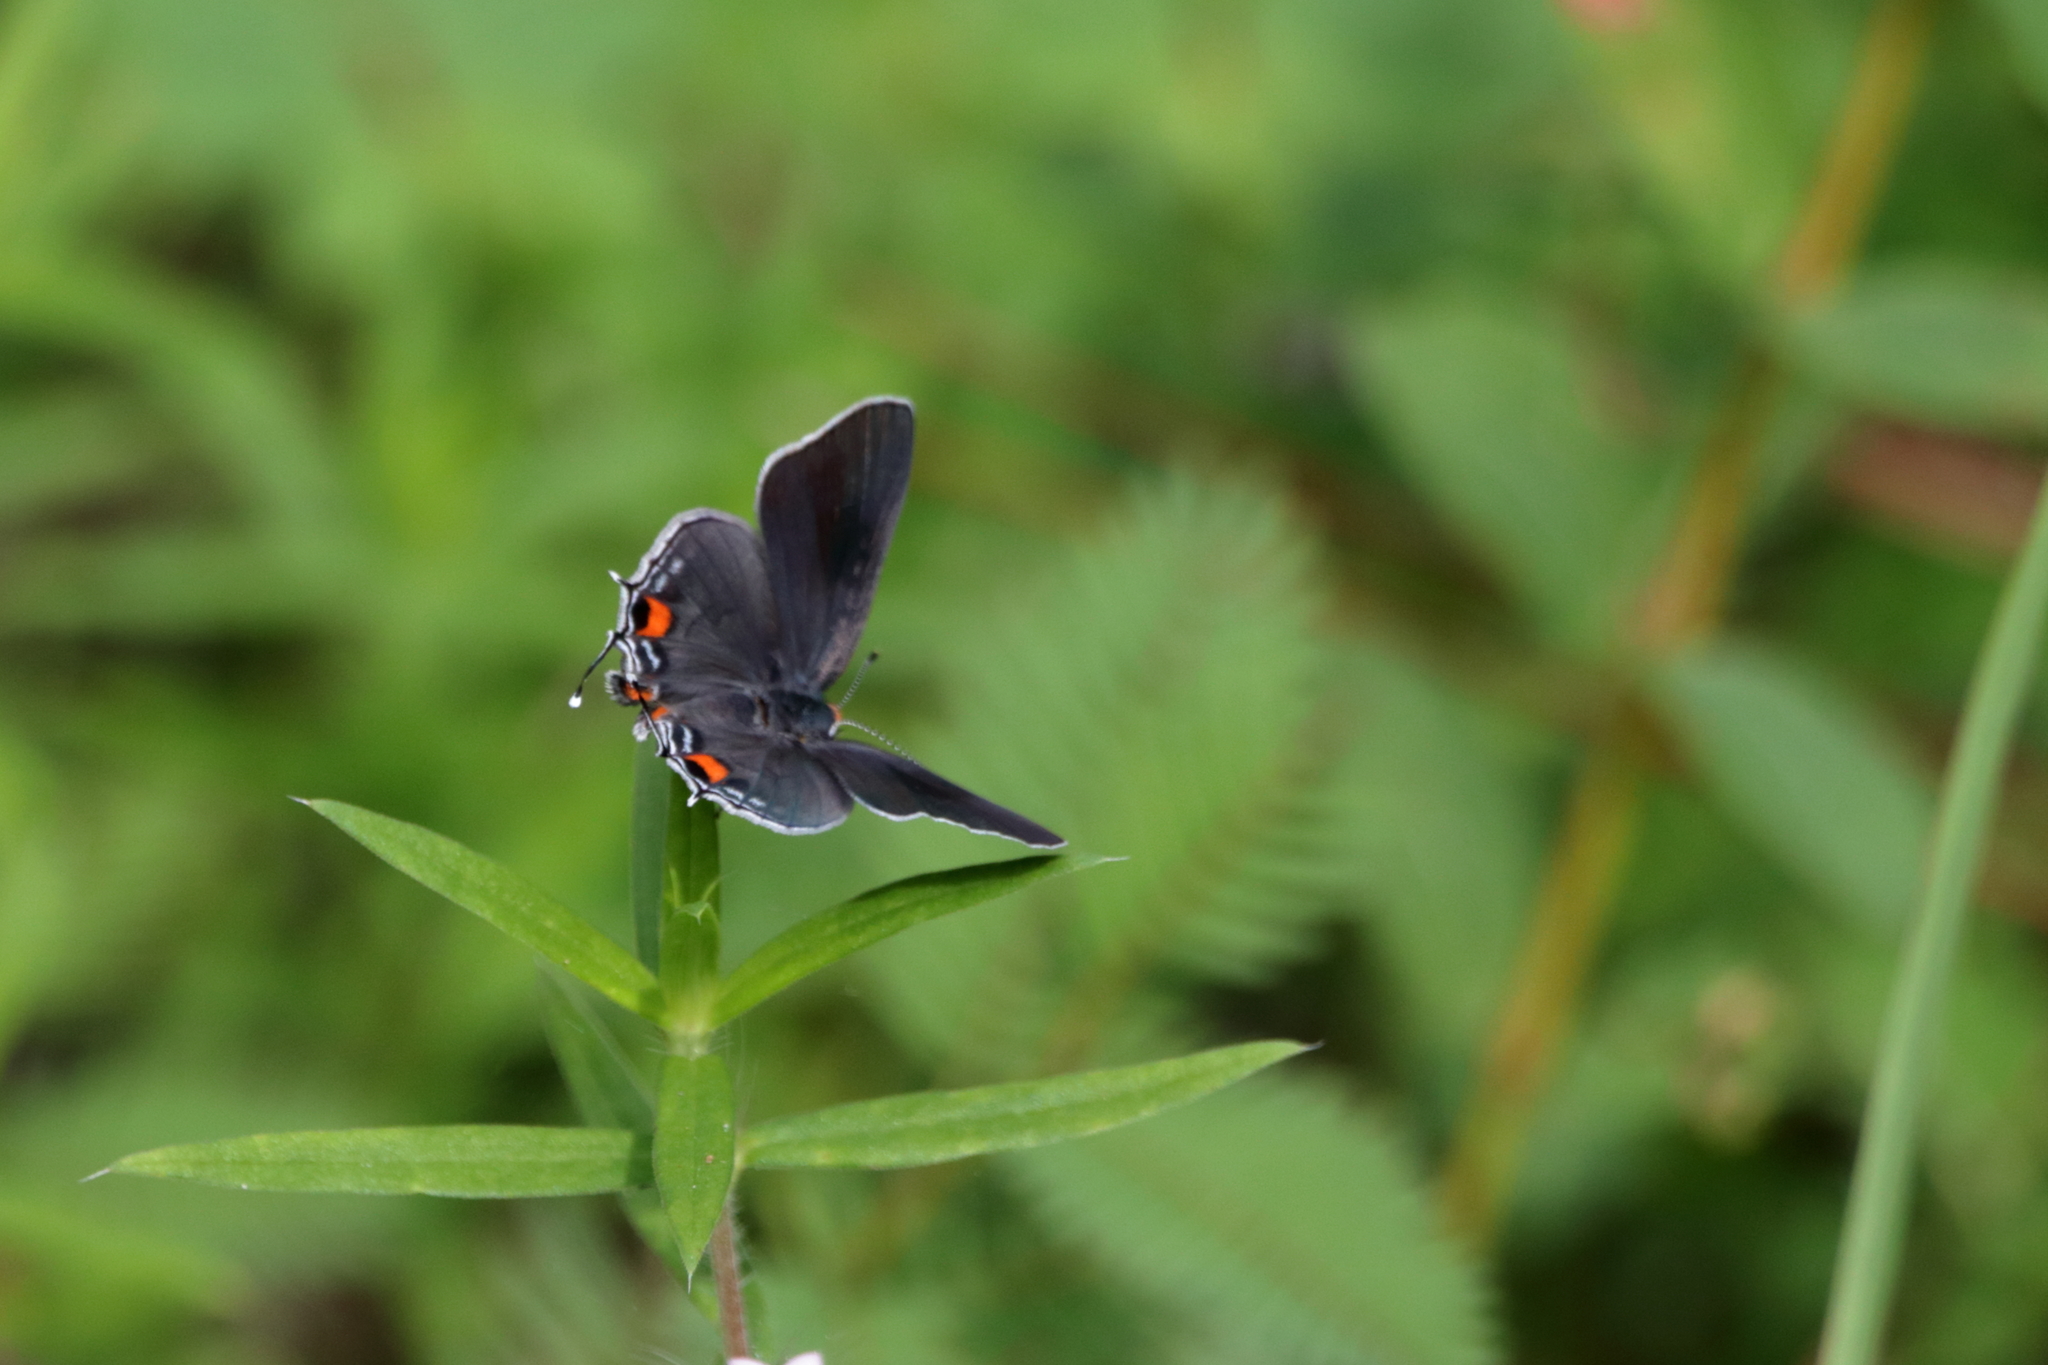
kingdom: Animalia
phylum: Arthropoda
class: Insecta
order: Lepidoptera
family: Lycaenidae
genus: Strymon
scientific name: Strymon melinus
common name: Gray hairstreak
